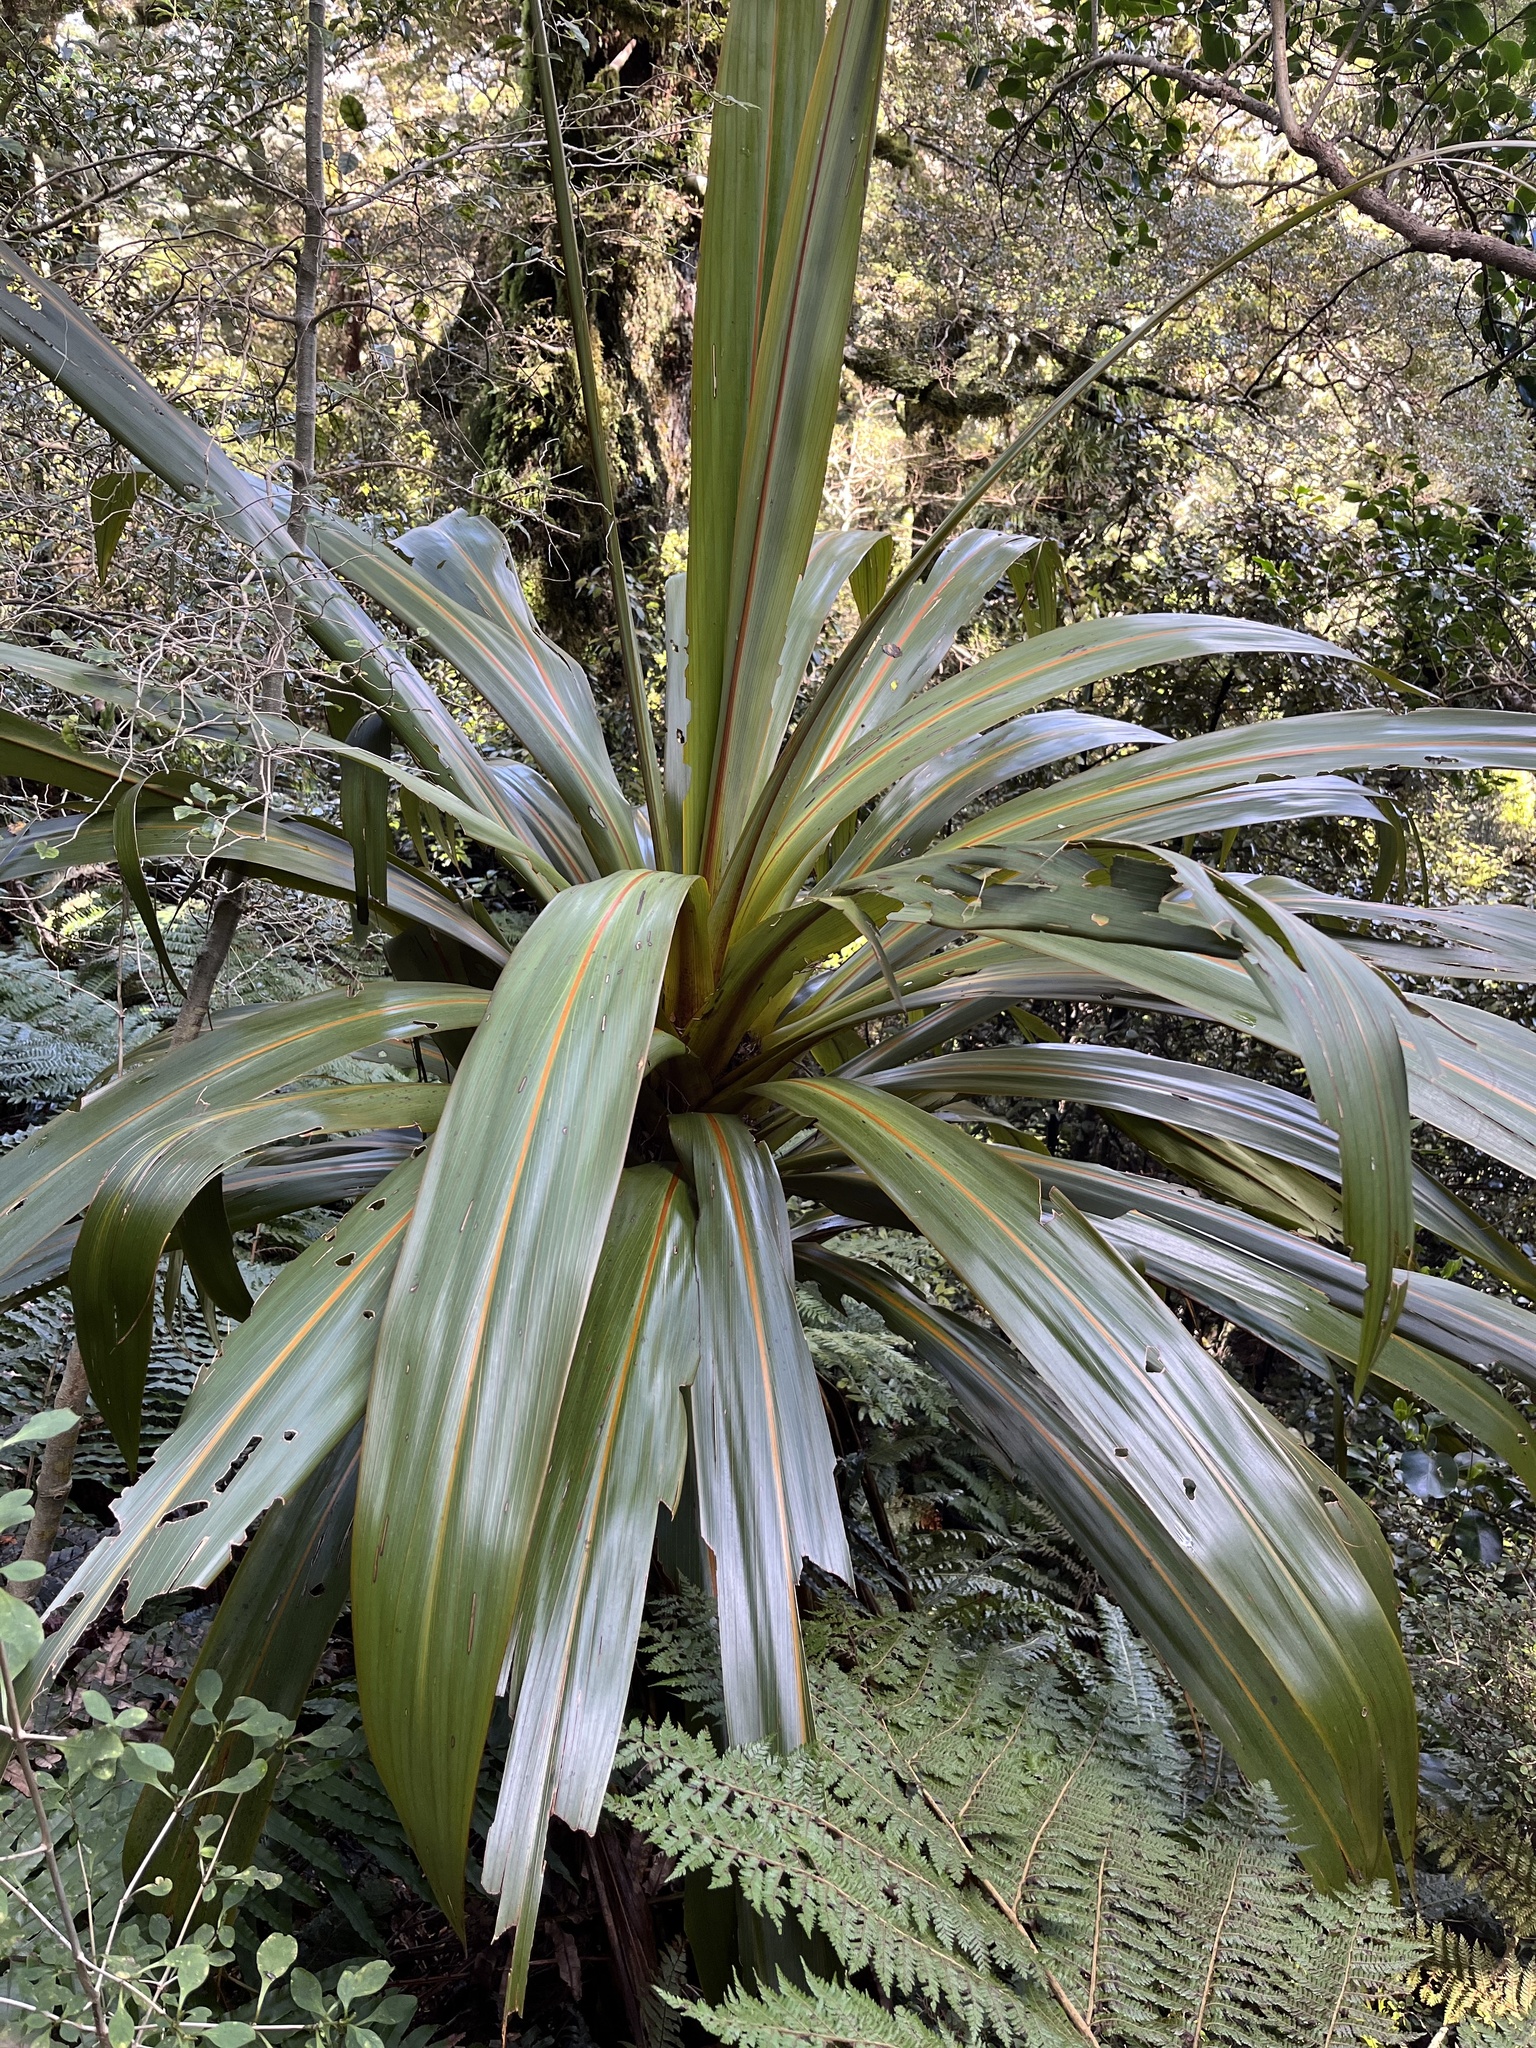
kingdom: Plantae
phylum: Tracheophyta
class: Liliopsida
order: Asparagales
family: Asparagaceae
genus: Cordyline
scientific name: Cordyline indivisa
